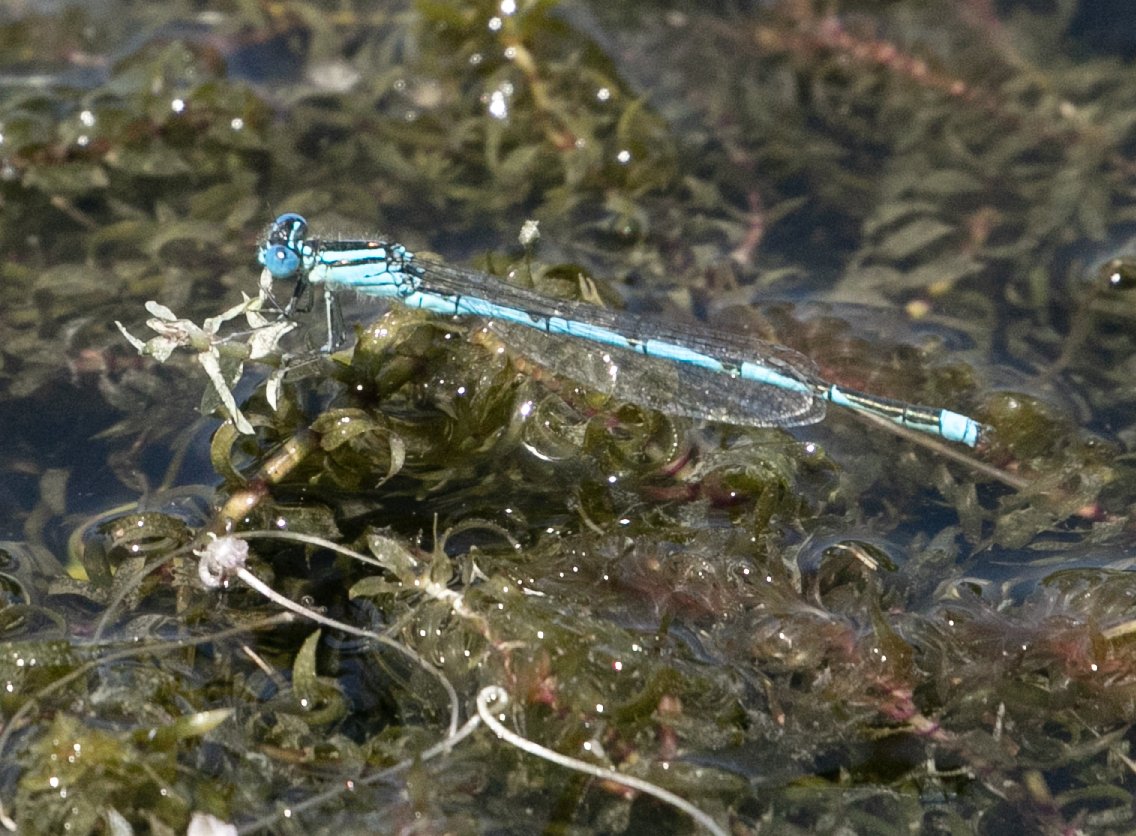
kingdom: Animalia
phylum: Arthropoda
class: Insecta
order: Odonata
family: Coenagrionidae
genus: Erythromma
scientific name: Erythromma lindenii
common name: Blue-eye
